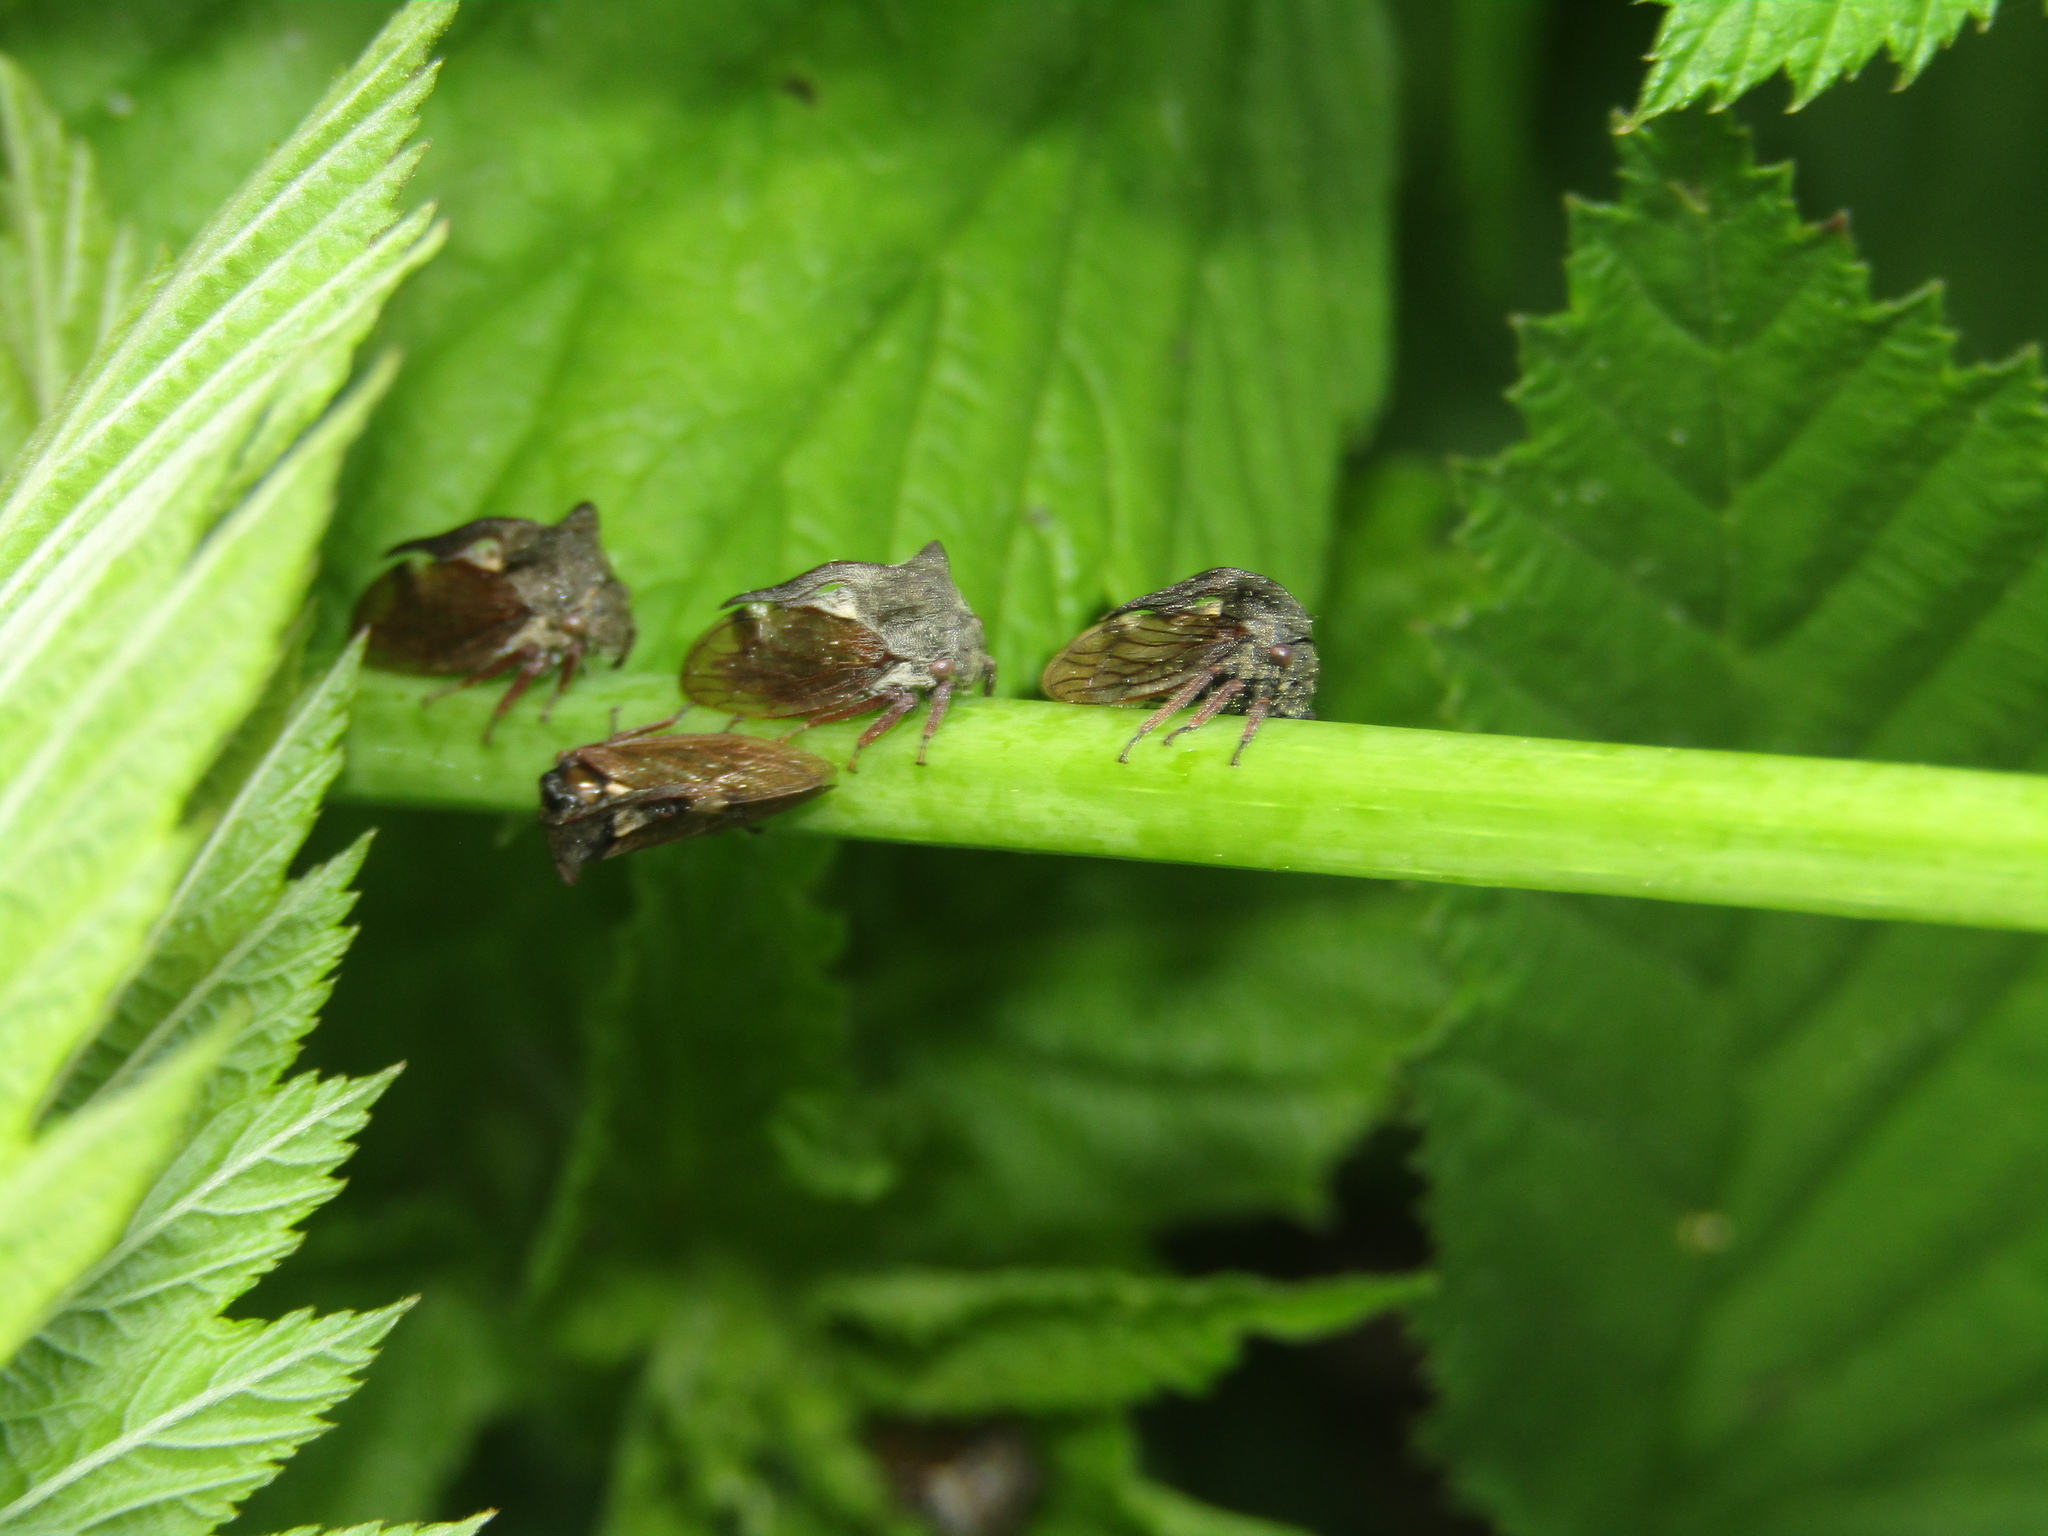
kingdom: Animalia
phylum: Arthropoda
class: Insecta
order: Hemiptera
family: Membracidae
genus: Centrotus
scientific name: Centrotus cornuta
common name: Treehopper
